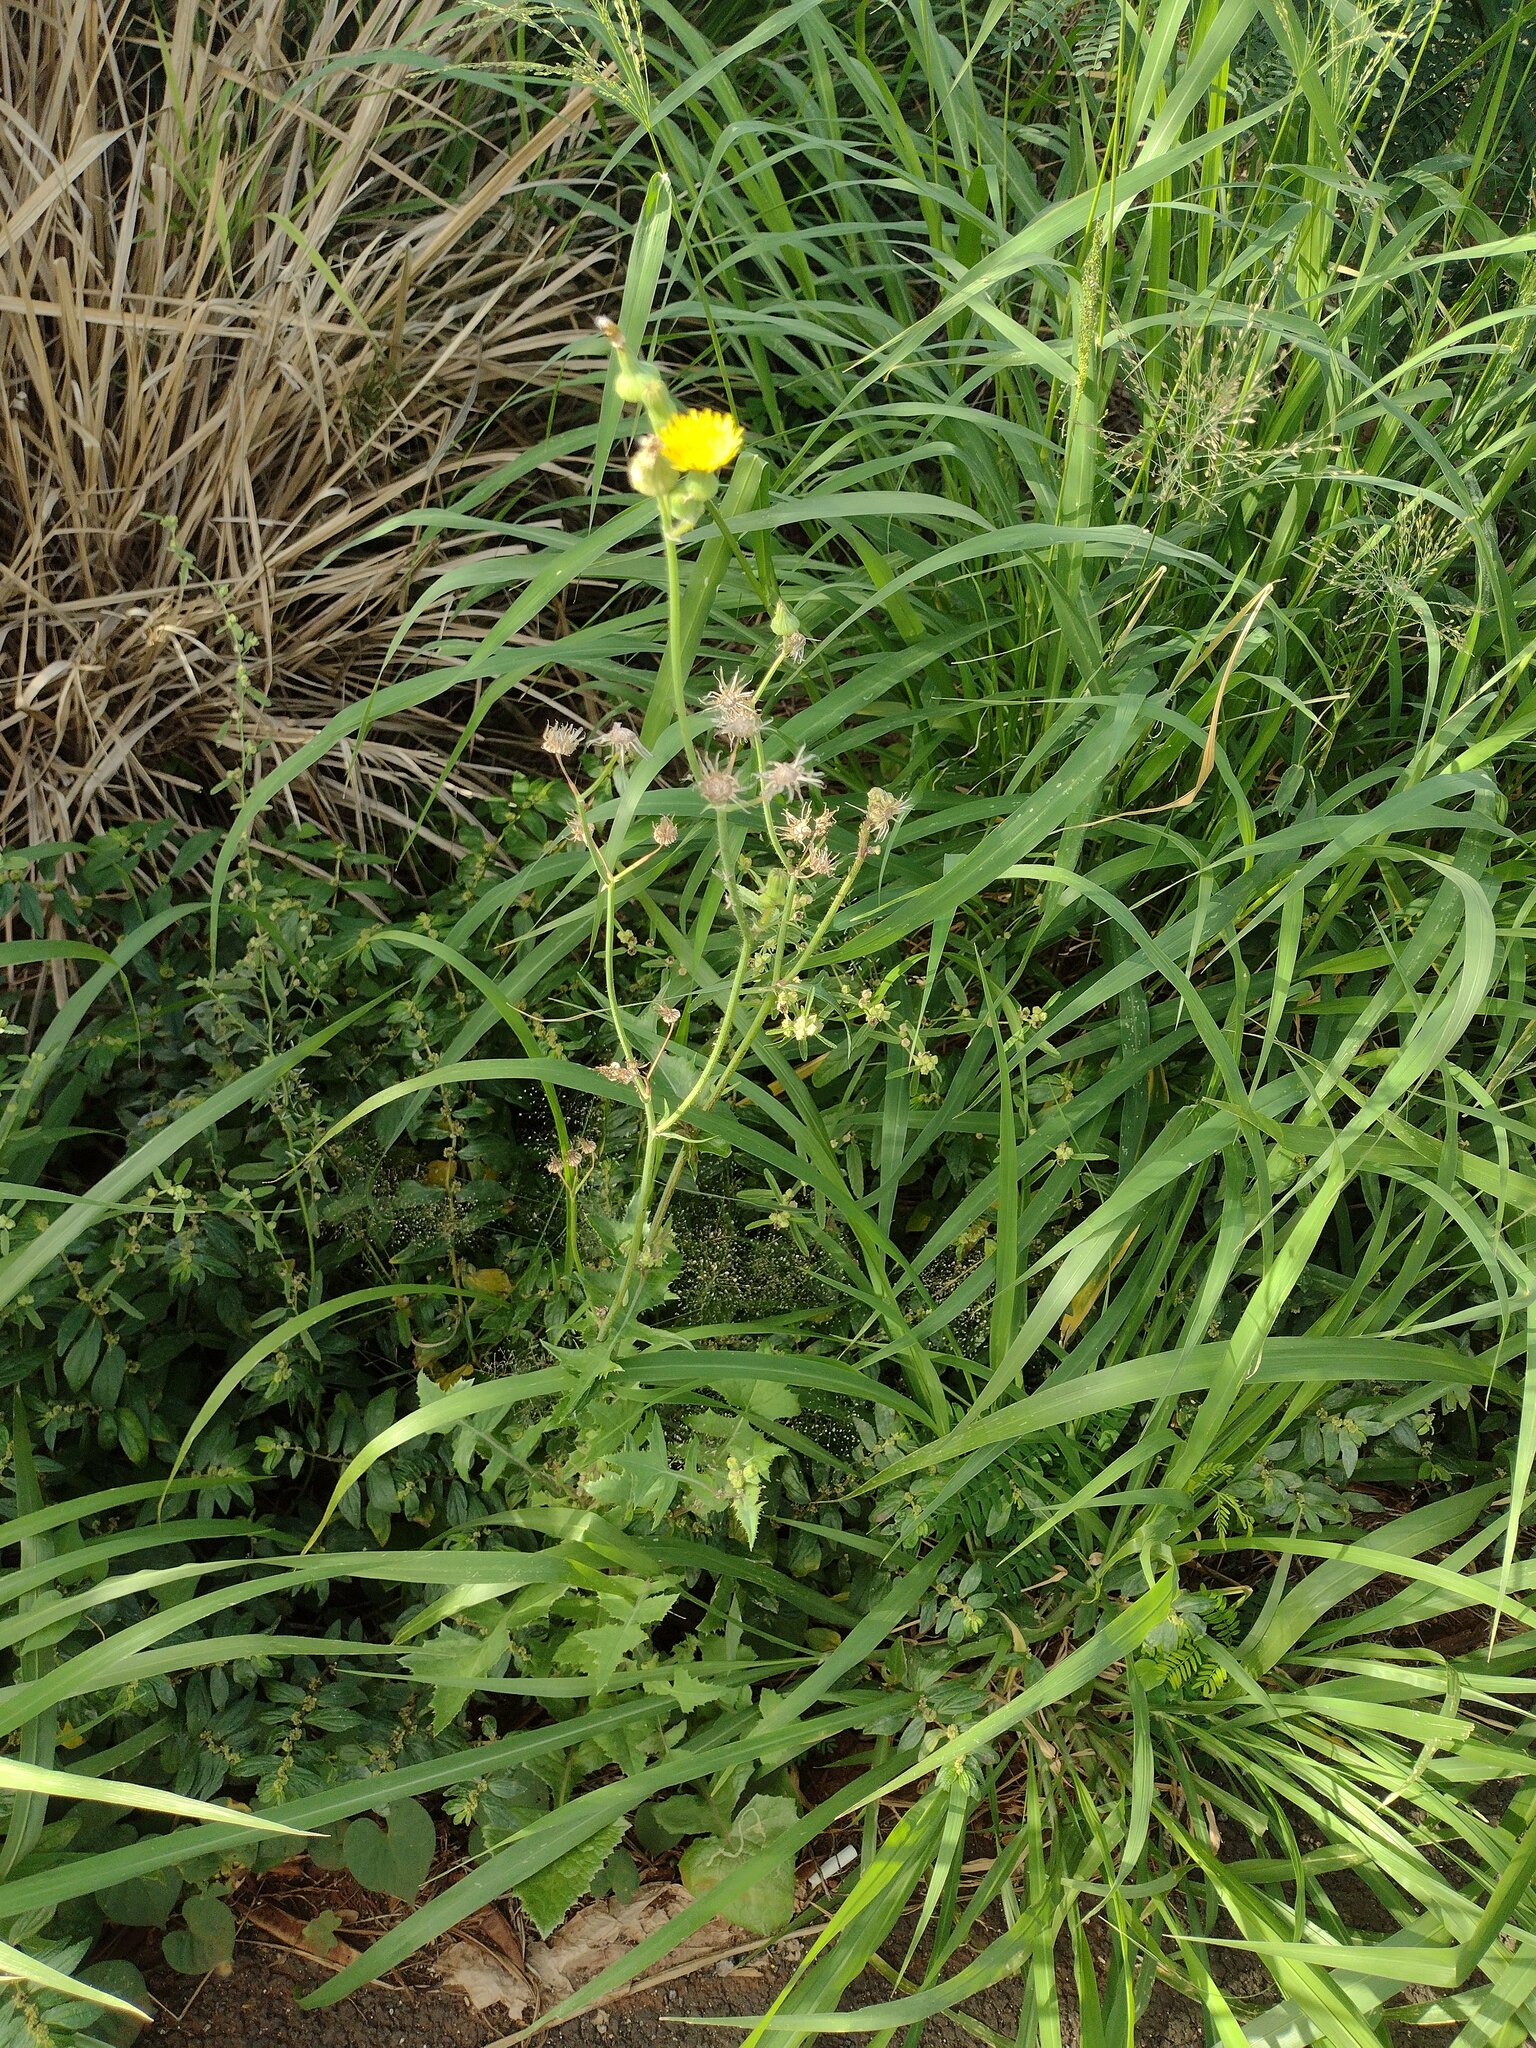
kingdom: Plantae
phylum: Tracheophyta
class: Magnoliopsida
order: Asterales
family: Asteraceae
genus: Sonchus
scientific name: Sonchus oleraceus
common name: Common sowthistle
